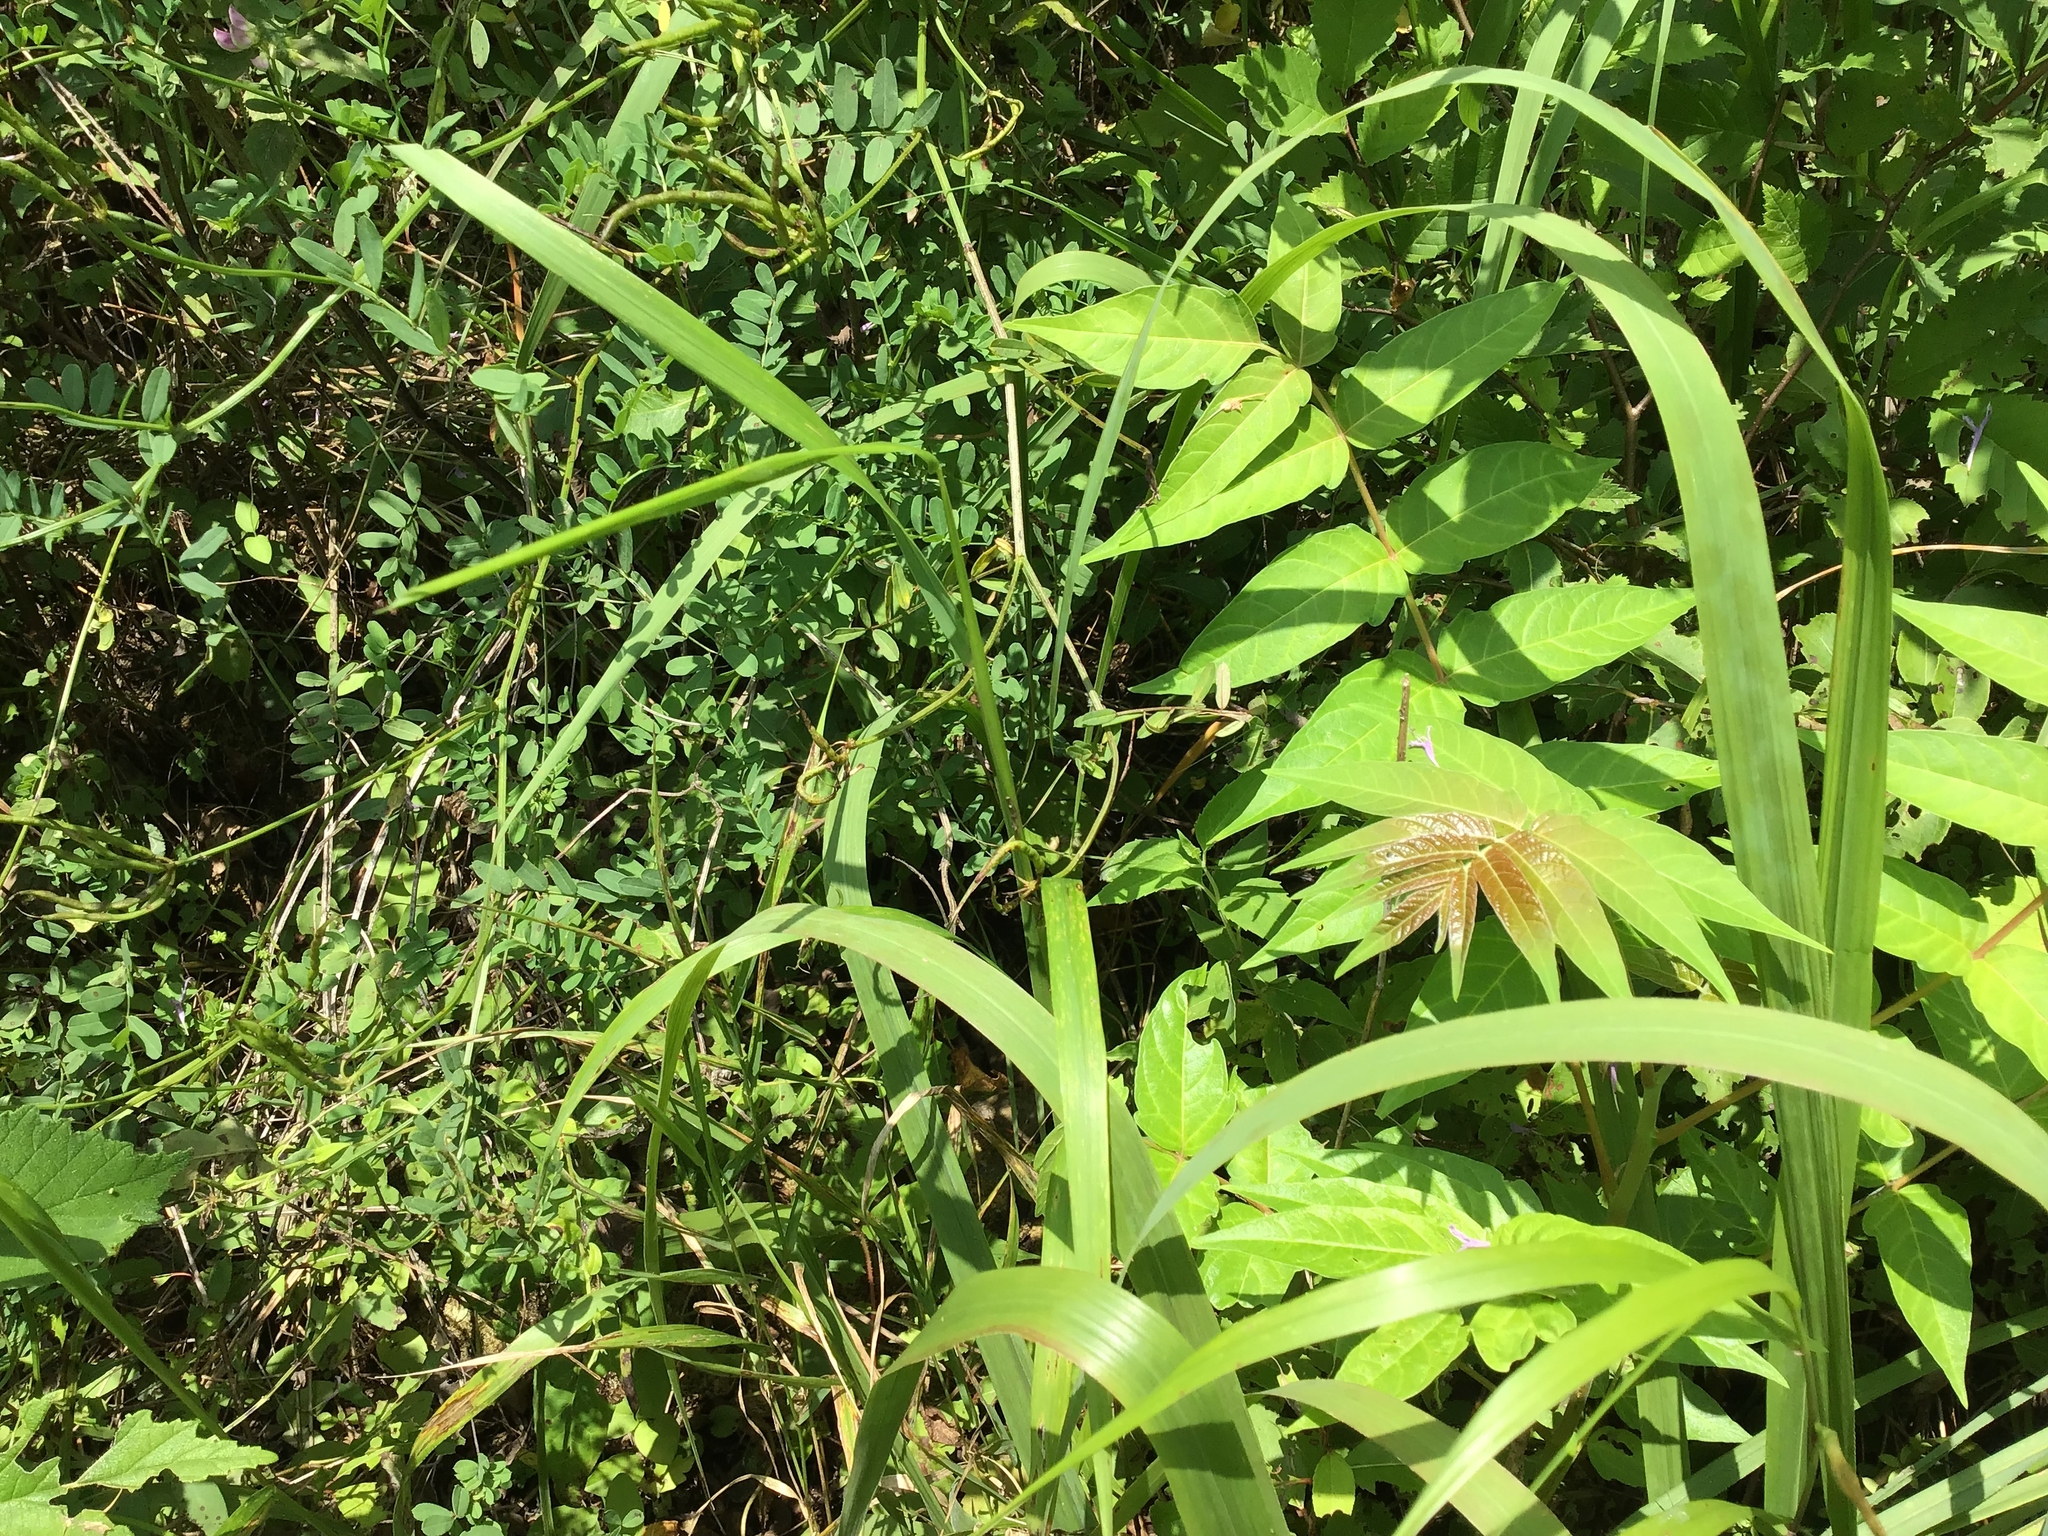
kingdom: Plantae
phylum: Tracheophyta
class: Magnoliopsida
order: Sapindales
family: Simaroubaceae
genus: Ailanthus
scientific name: Ailanthus altissima
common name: Tree-of-heaven
